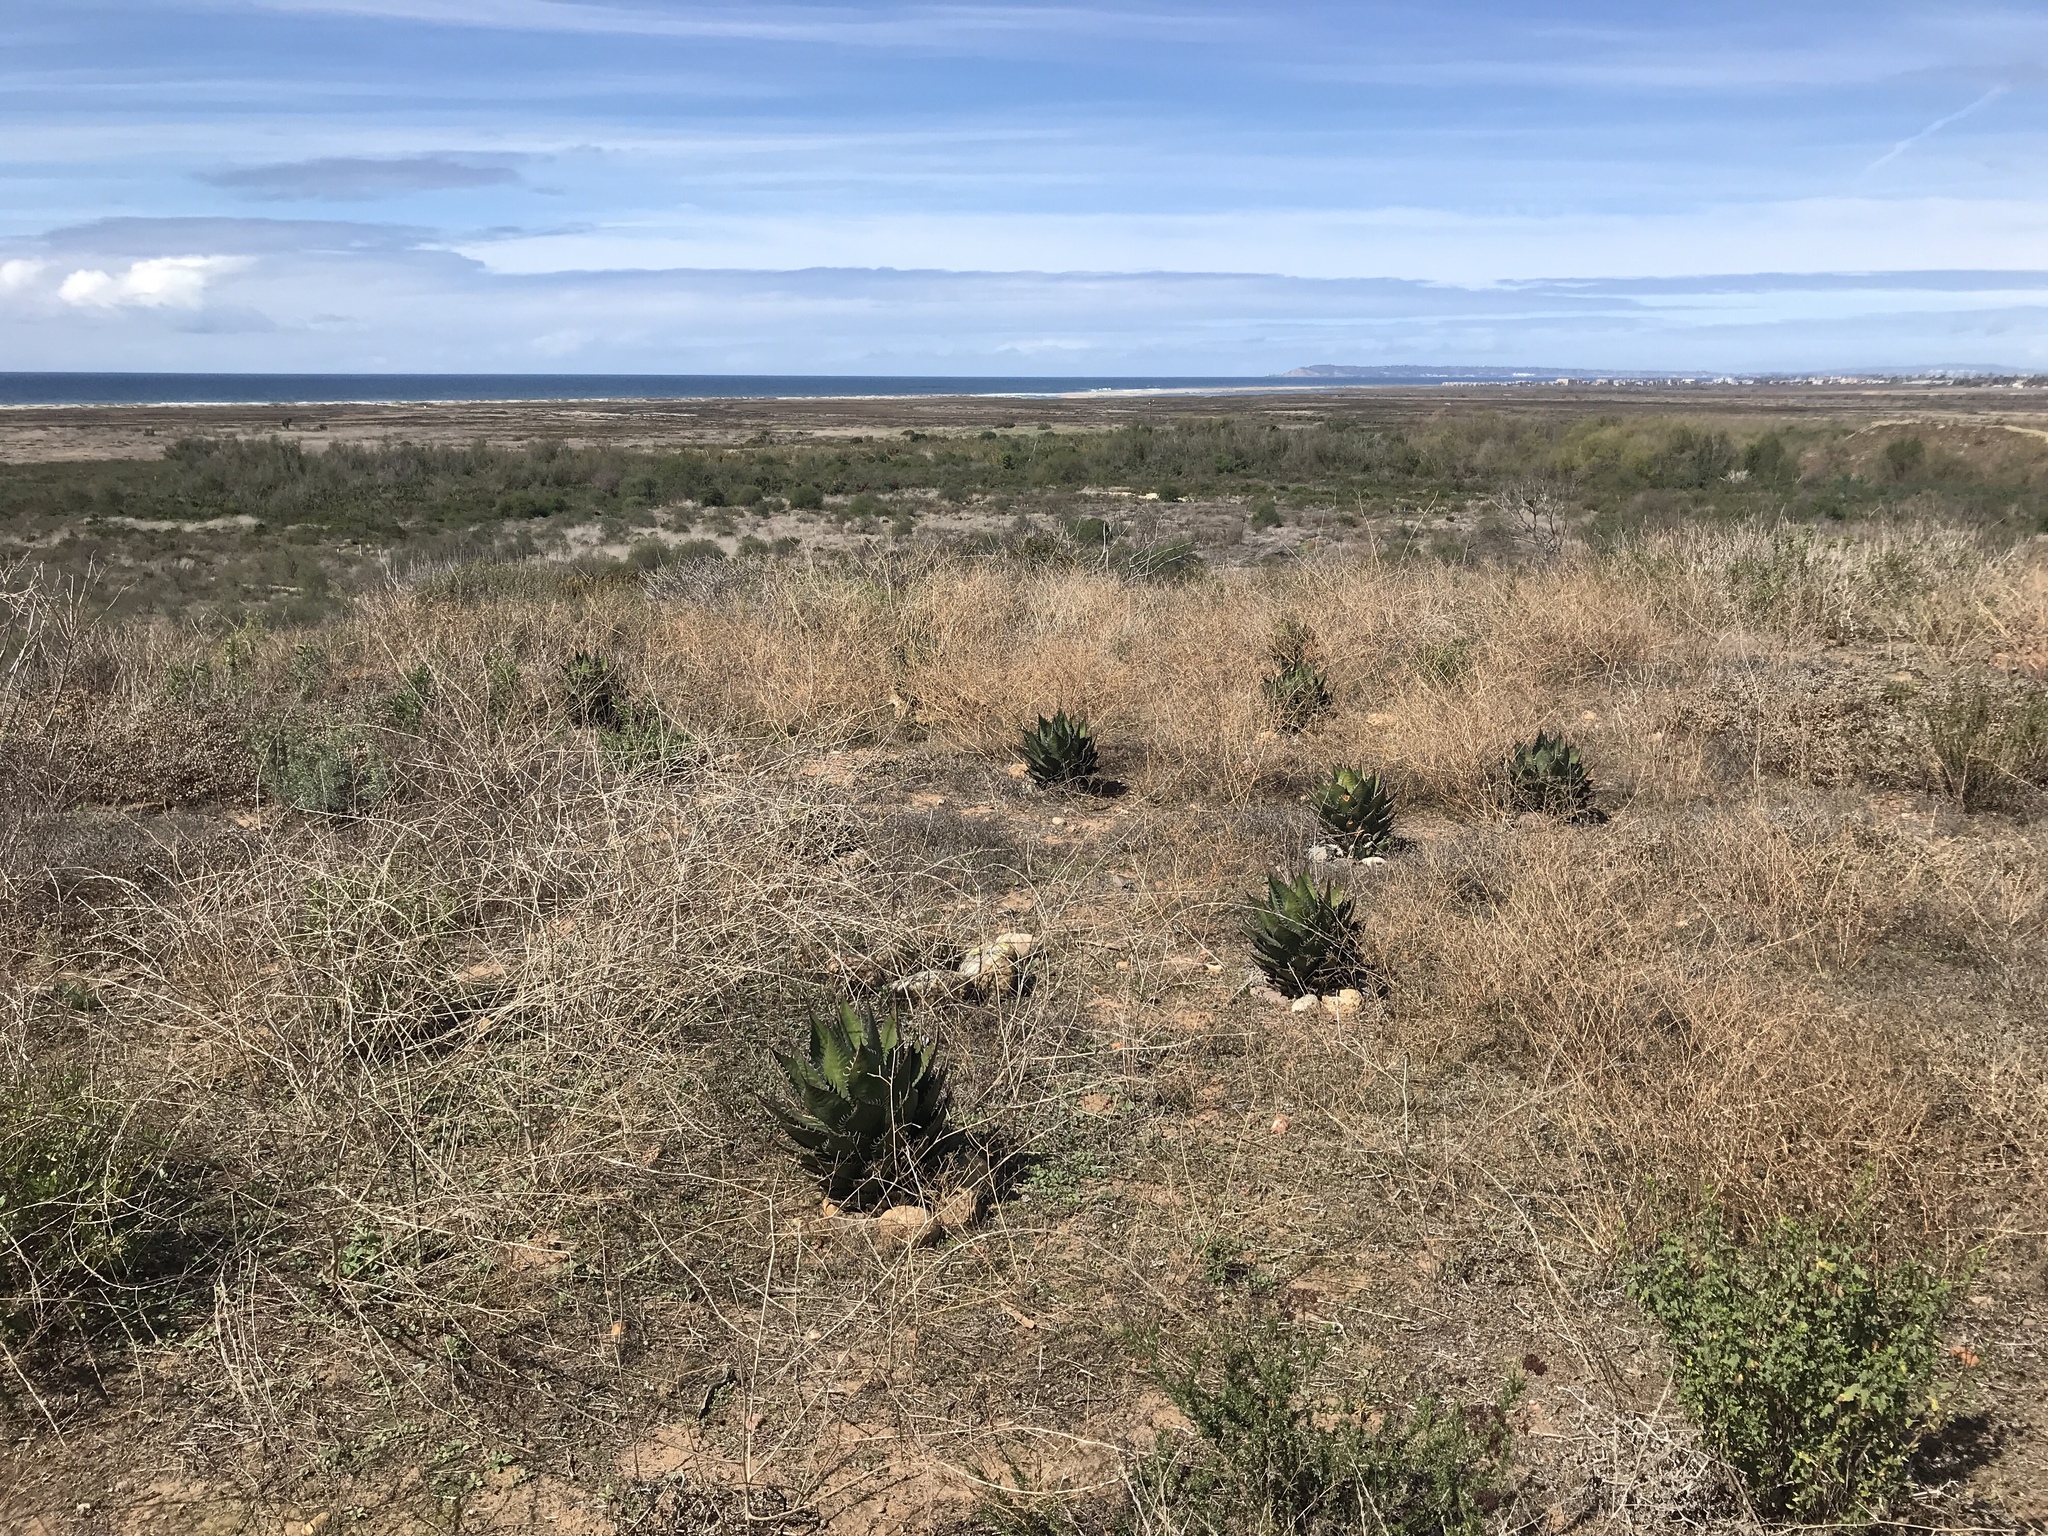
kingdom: Plantae
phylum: Tracheophyta
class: Liliopsida
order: Asparagales
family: Asparagaceae
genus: Agave
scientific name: Agave shawii
